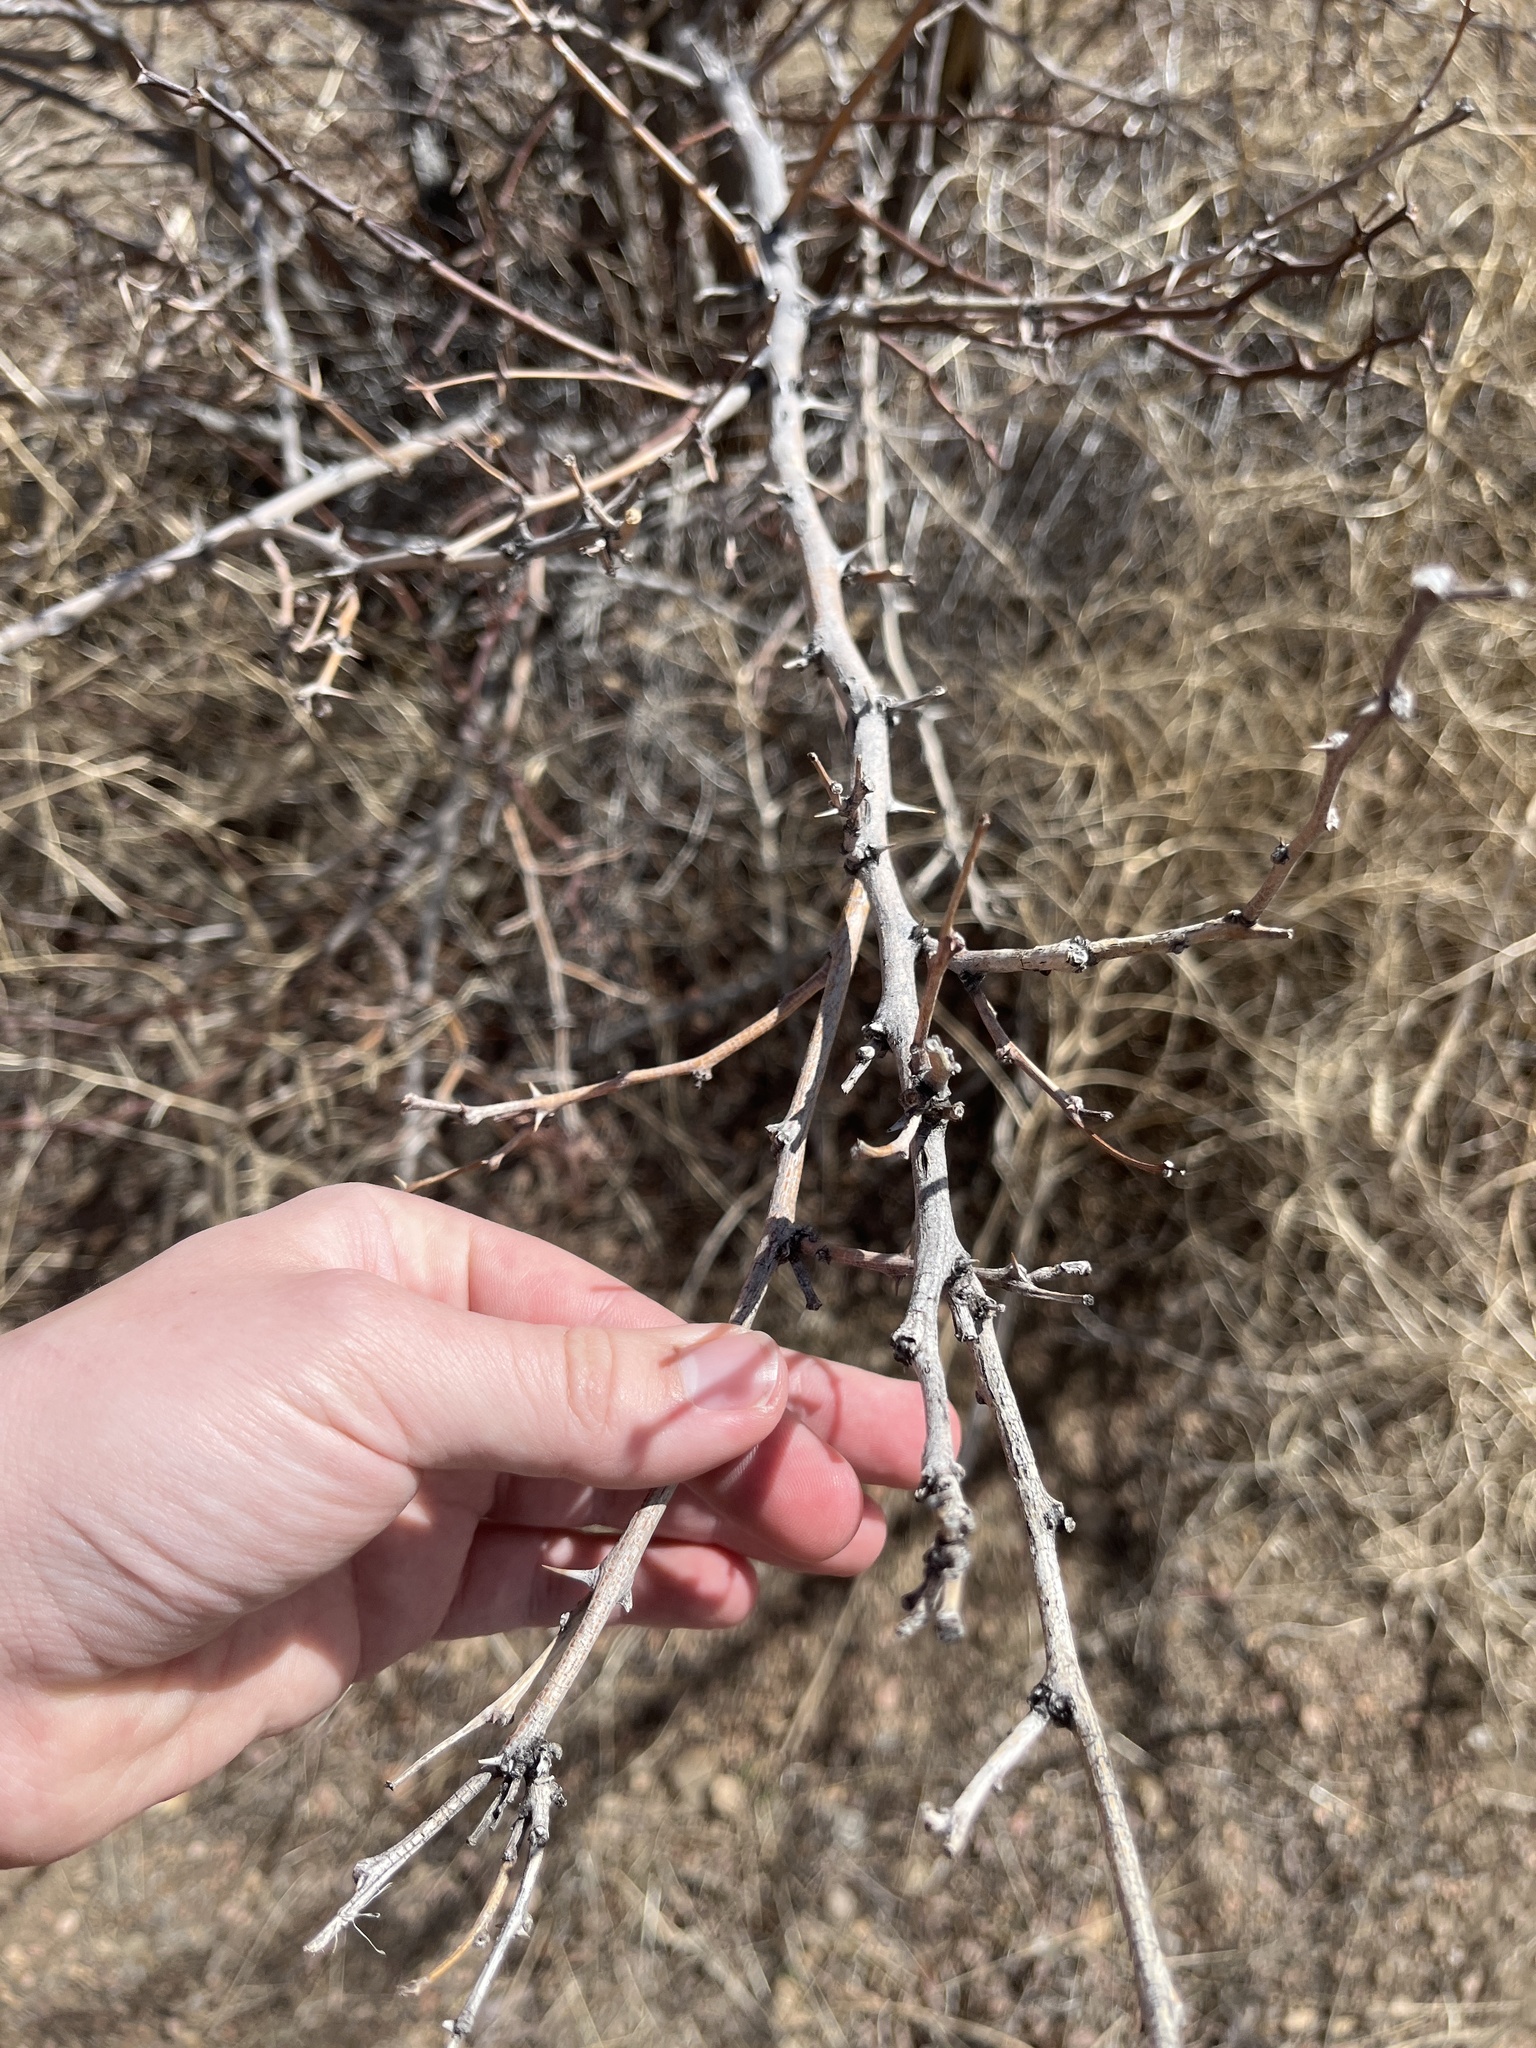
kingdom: Plantae
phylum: Tracheophyta
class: Magnoliopsida
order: Rosales
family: Rosaceae
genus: Cercocarpus
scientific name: Cercocarpus montanus
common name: Alder-leaf cercocarpus
